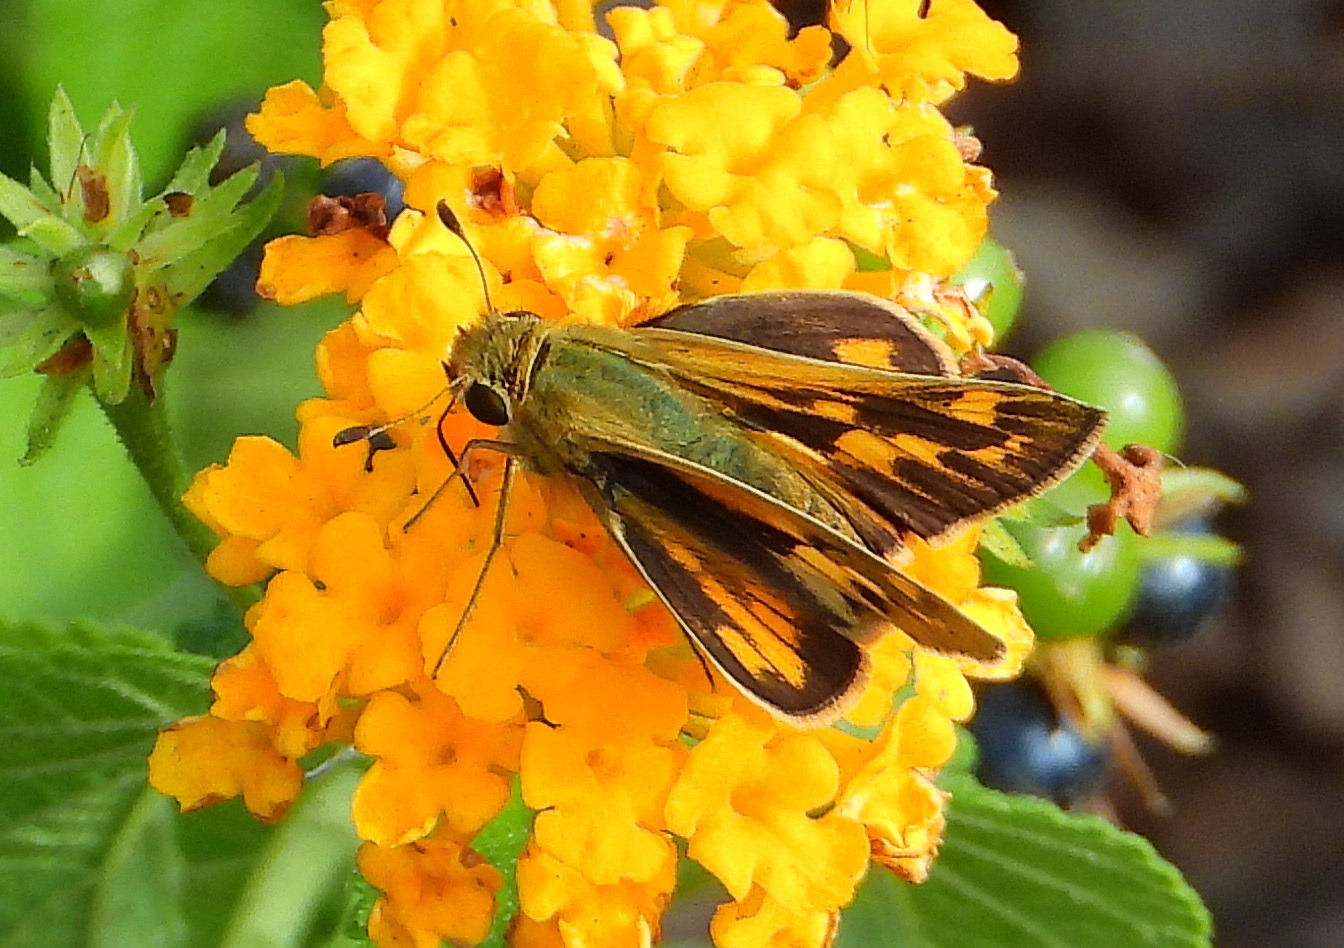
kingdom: Animalia
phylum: Arthropoda
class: Insecta
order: Lepidoptera
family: Hesperiidae
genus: Hylephila
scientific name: Hylephila phyleus
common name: Fiery skipper
